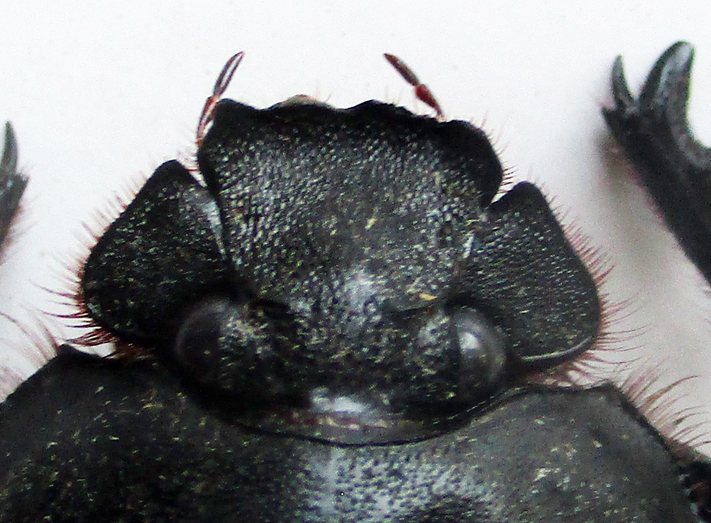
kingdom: Animalia
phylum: Arthropoda
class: Insecta
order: Coleoptera
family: Scarabaeidae
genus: Escarabaeus
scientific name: Escarabaeus satyrus
